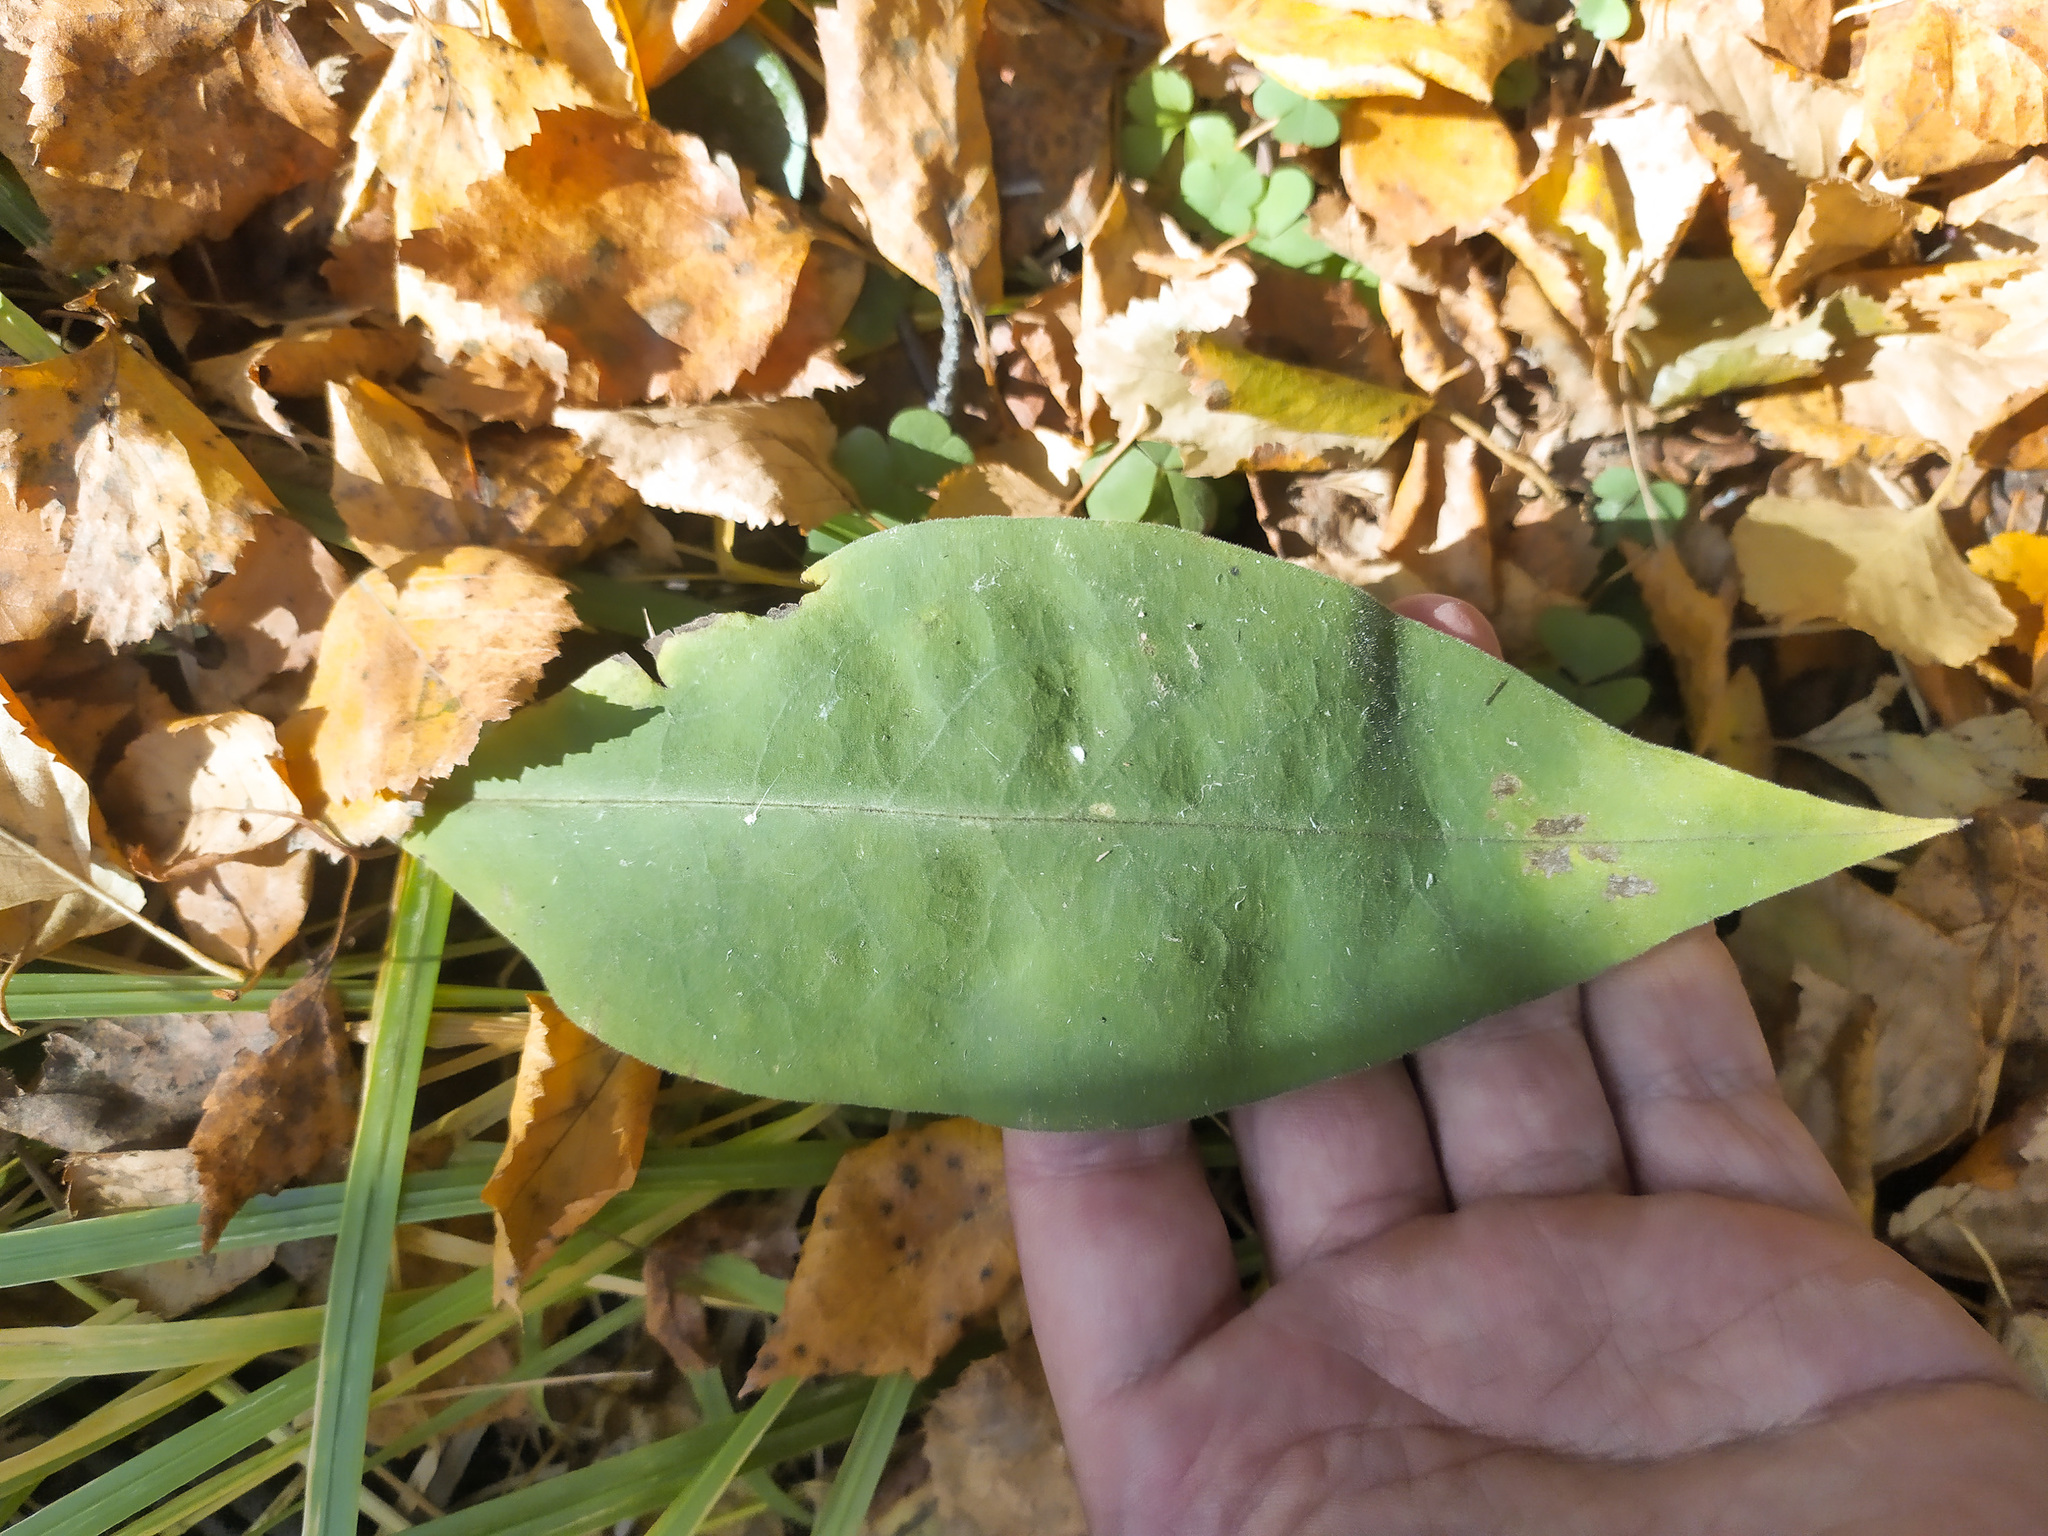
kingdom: Plantae
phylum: Tracheophyta
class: Magnoliopsida
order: Boraginales
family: Boraginaceae
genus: Pulmonaria
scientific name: Pulmonaria mollis
